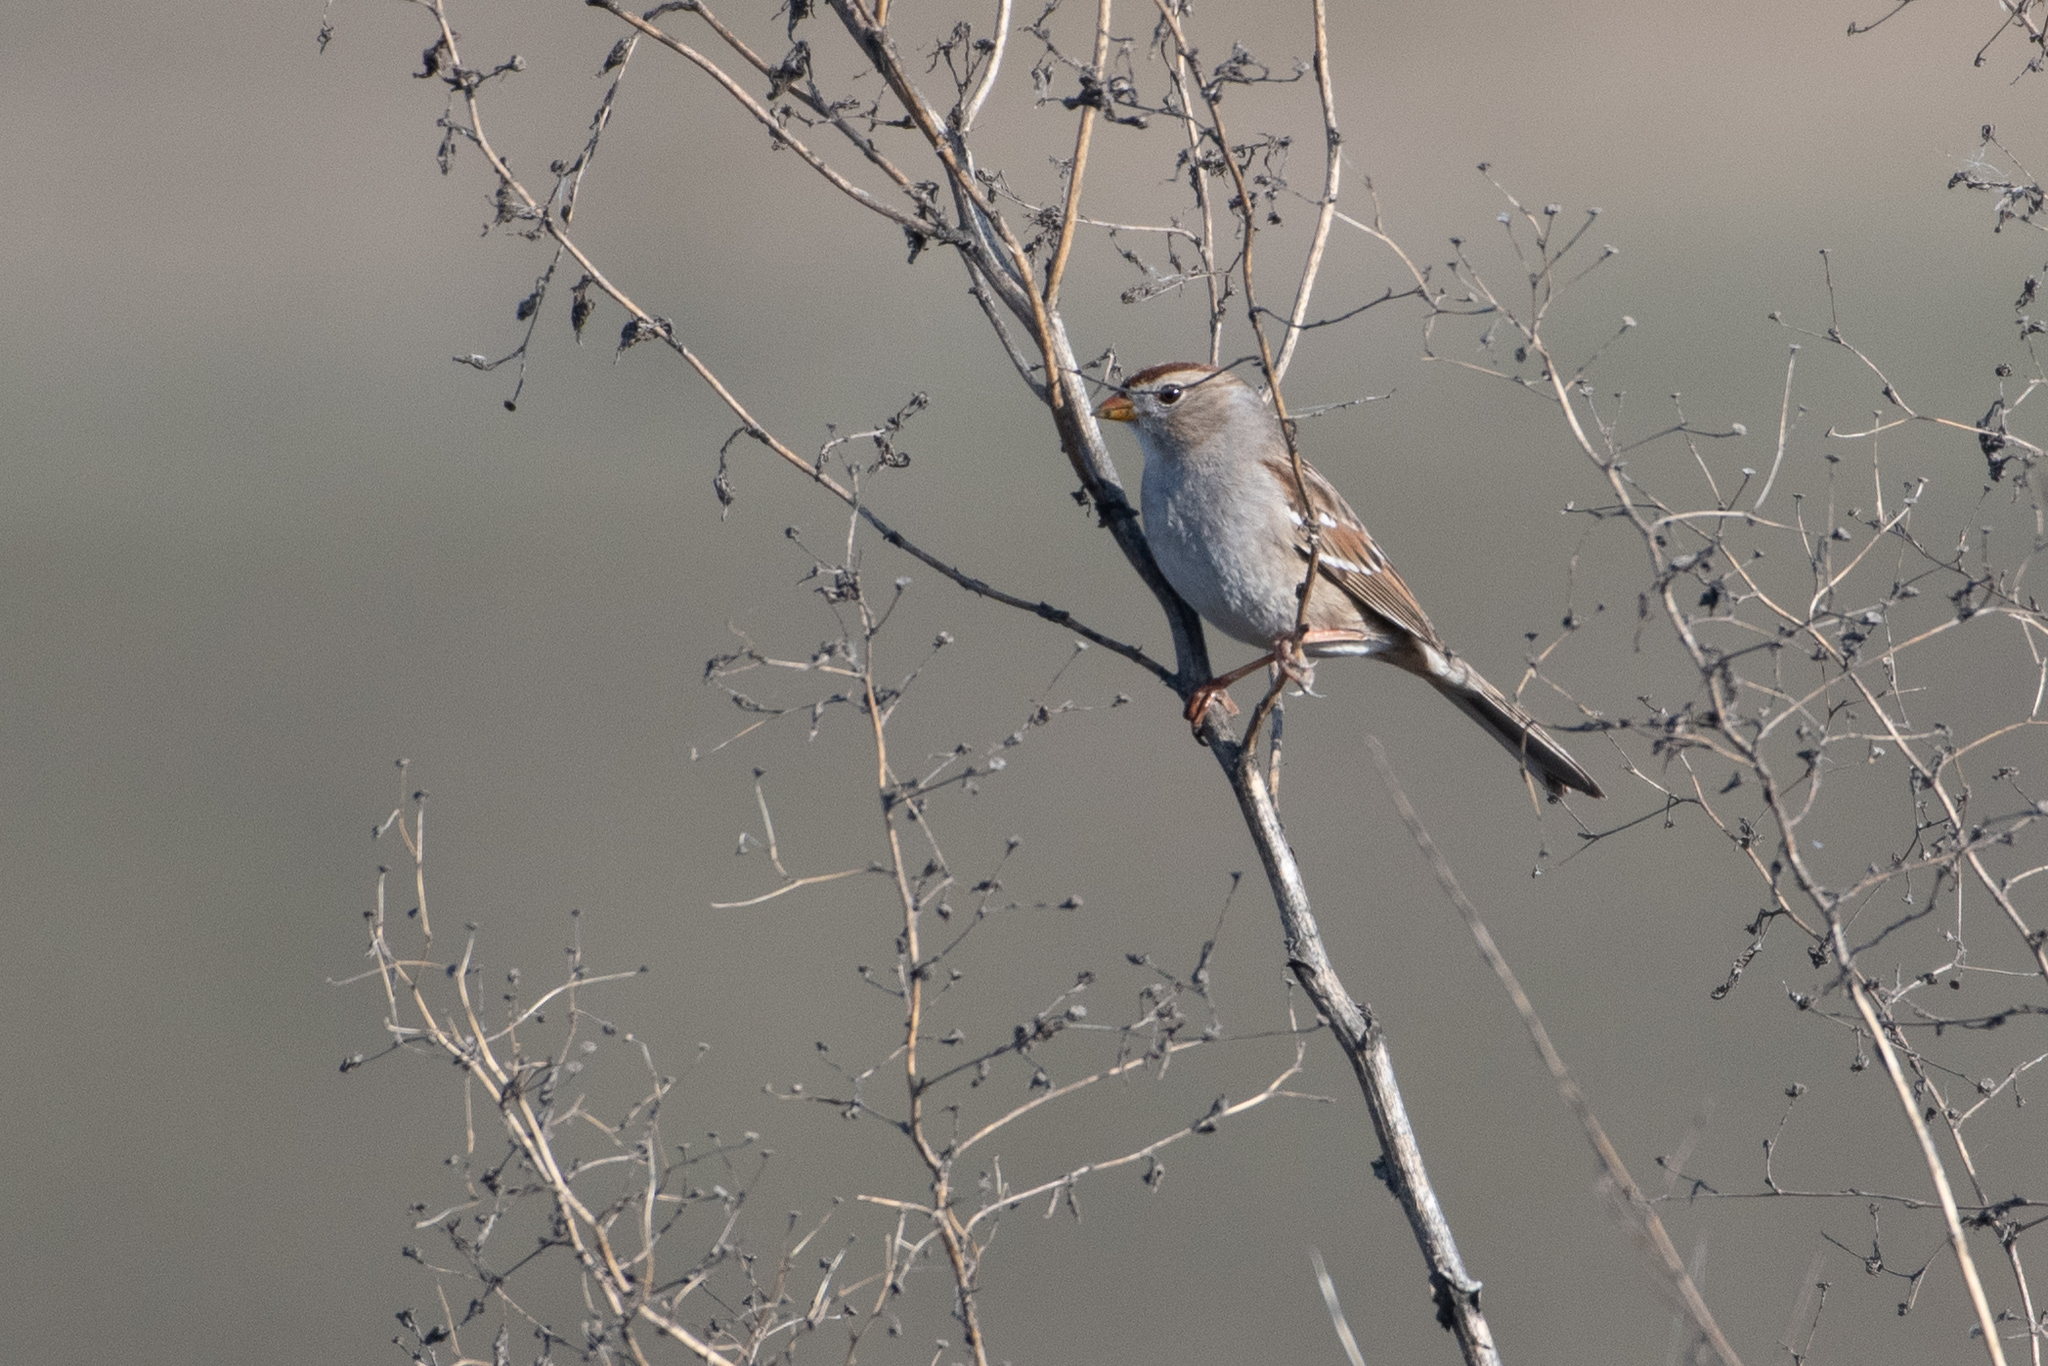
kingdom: Animalia
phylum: Chordata
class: Aves
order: Passeriformes
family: Passerellidae
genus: Zonotrichia
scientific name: Zonotrichia leucophrys
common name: White-crowned sparrow
